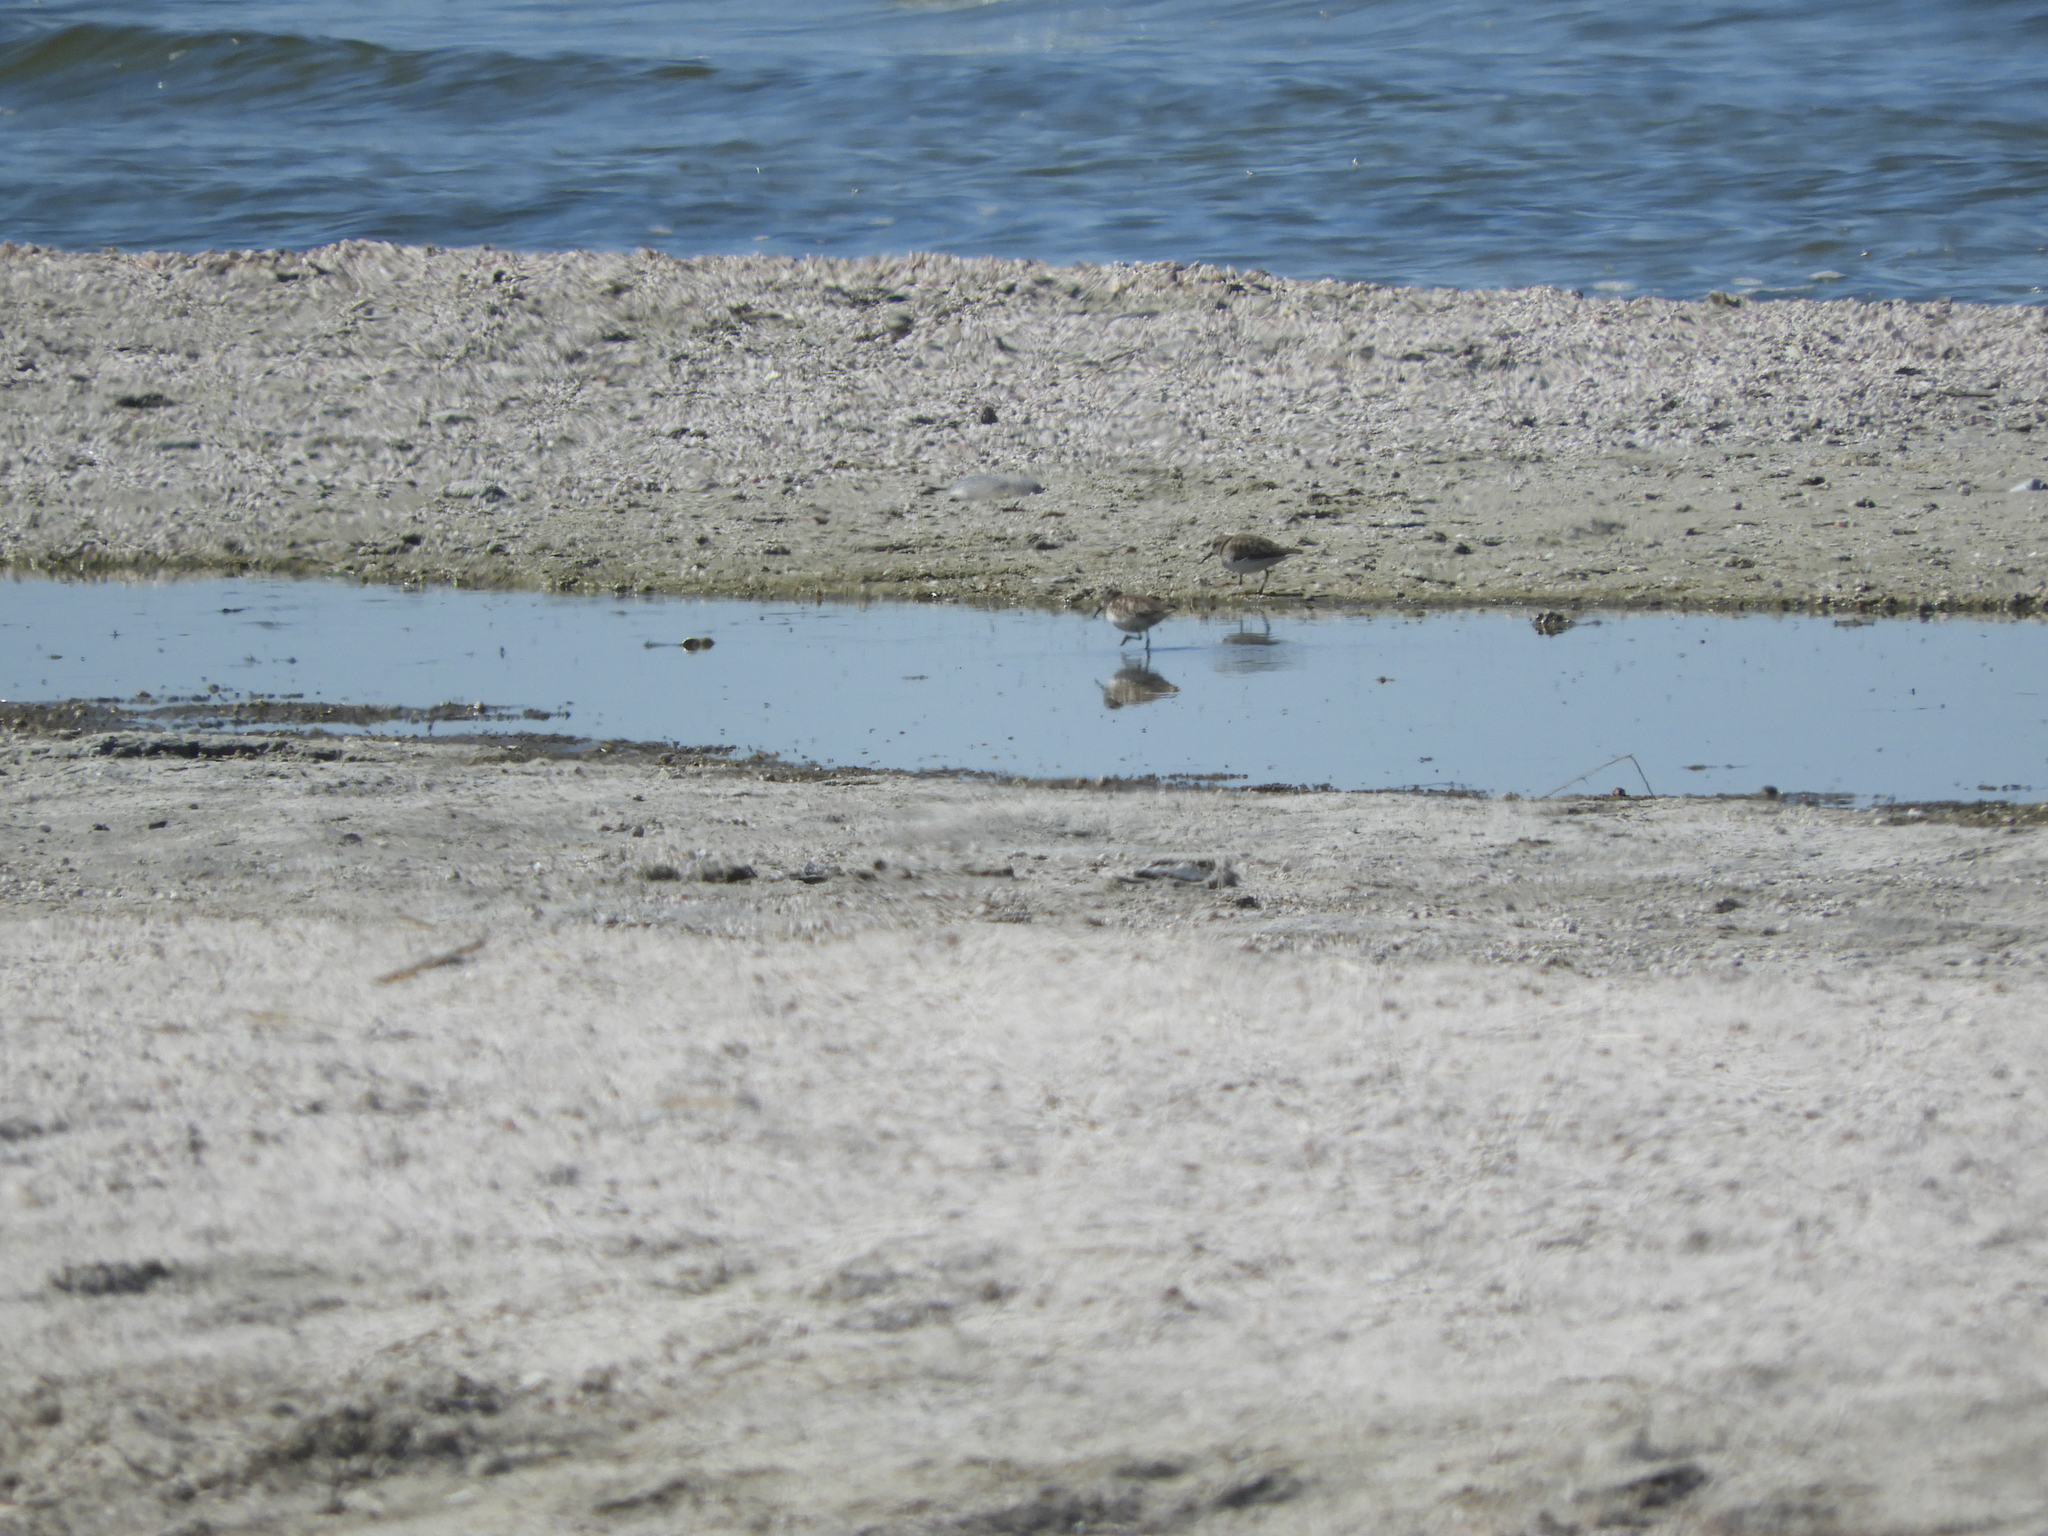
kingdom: Animalia
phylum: Chordata
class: Aves
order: Charadriiformes
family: Scolopacidae
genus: Calidris
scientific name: Calidris minutilla
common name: Least sandpiper
